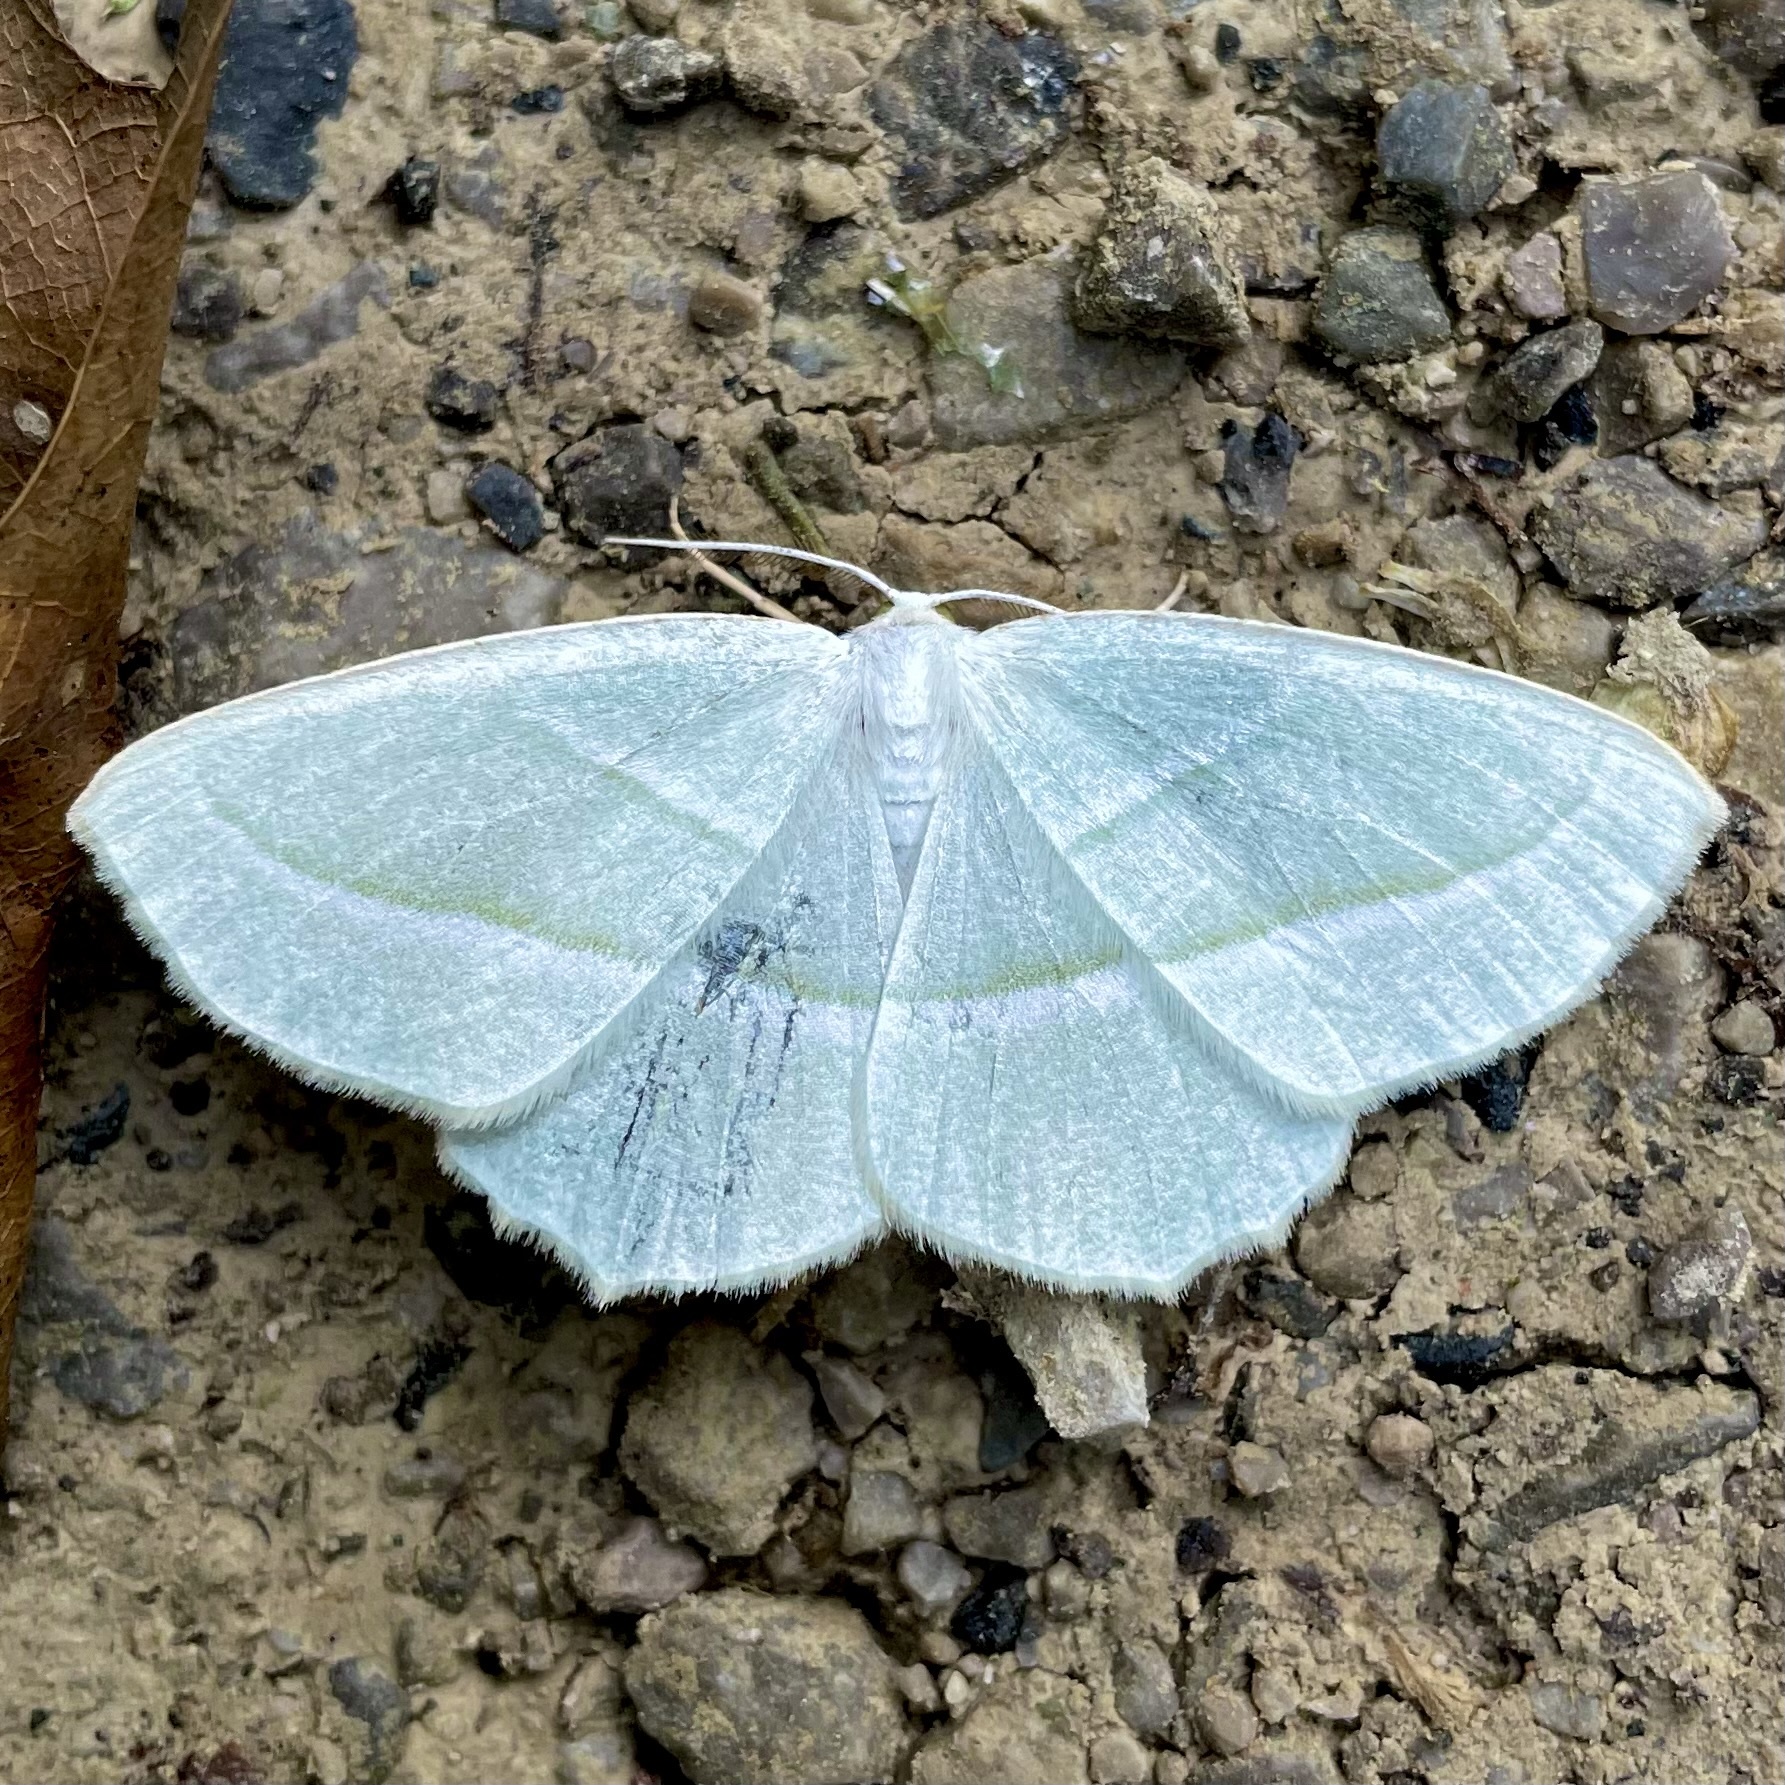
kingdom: Animalia
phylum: Arthropoda
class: Insecta
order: Lepidoptera
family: Geometridae
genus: Campaea
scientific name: Campaea perlata
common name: Fringed looper
